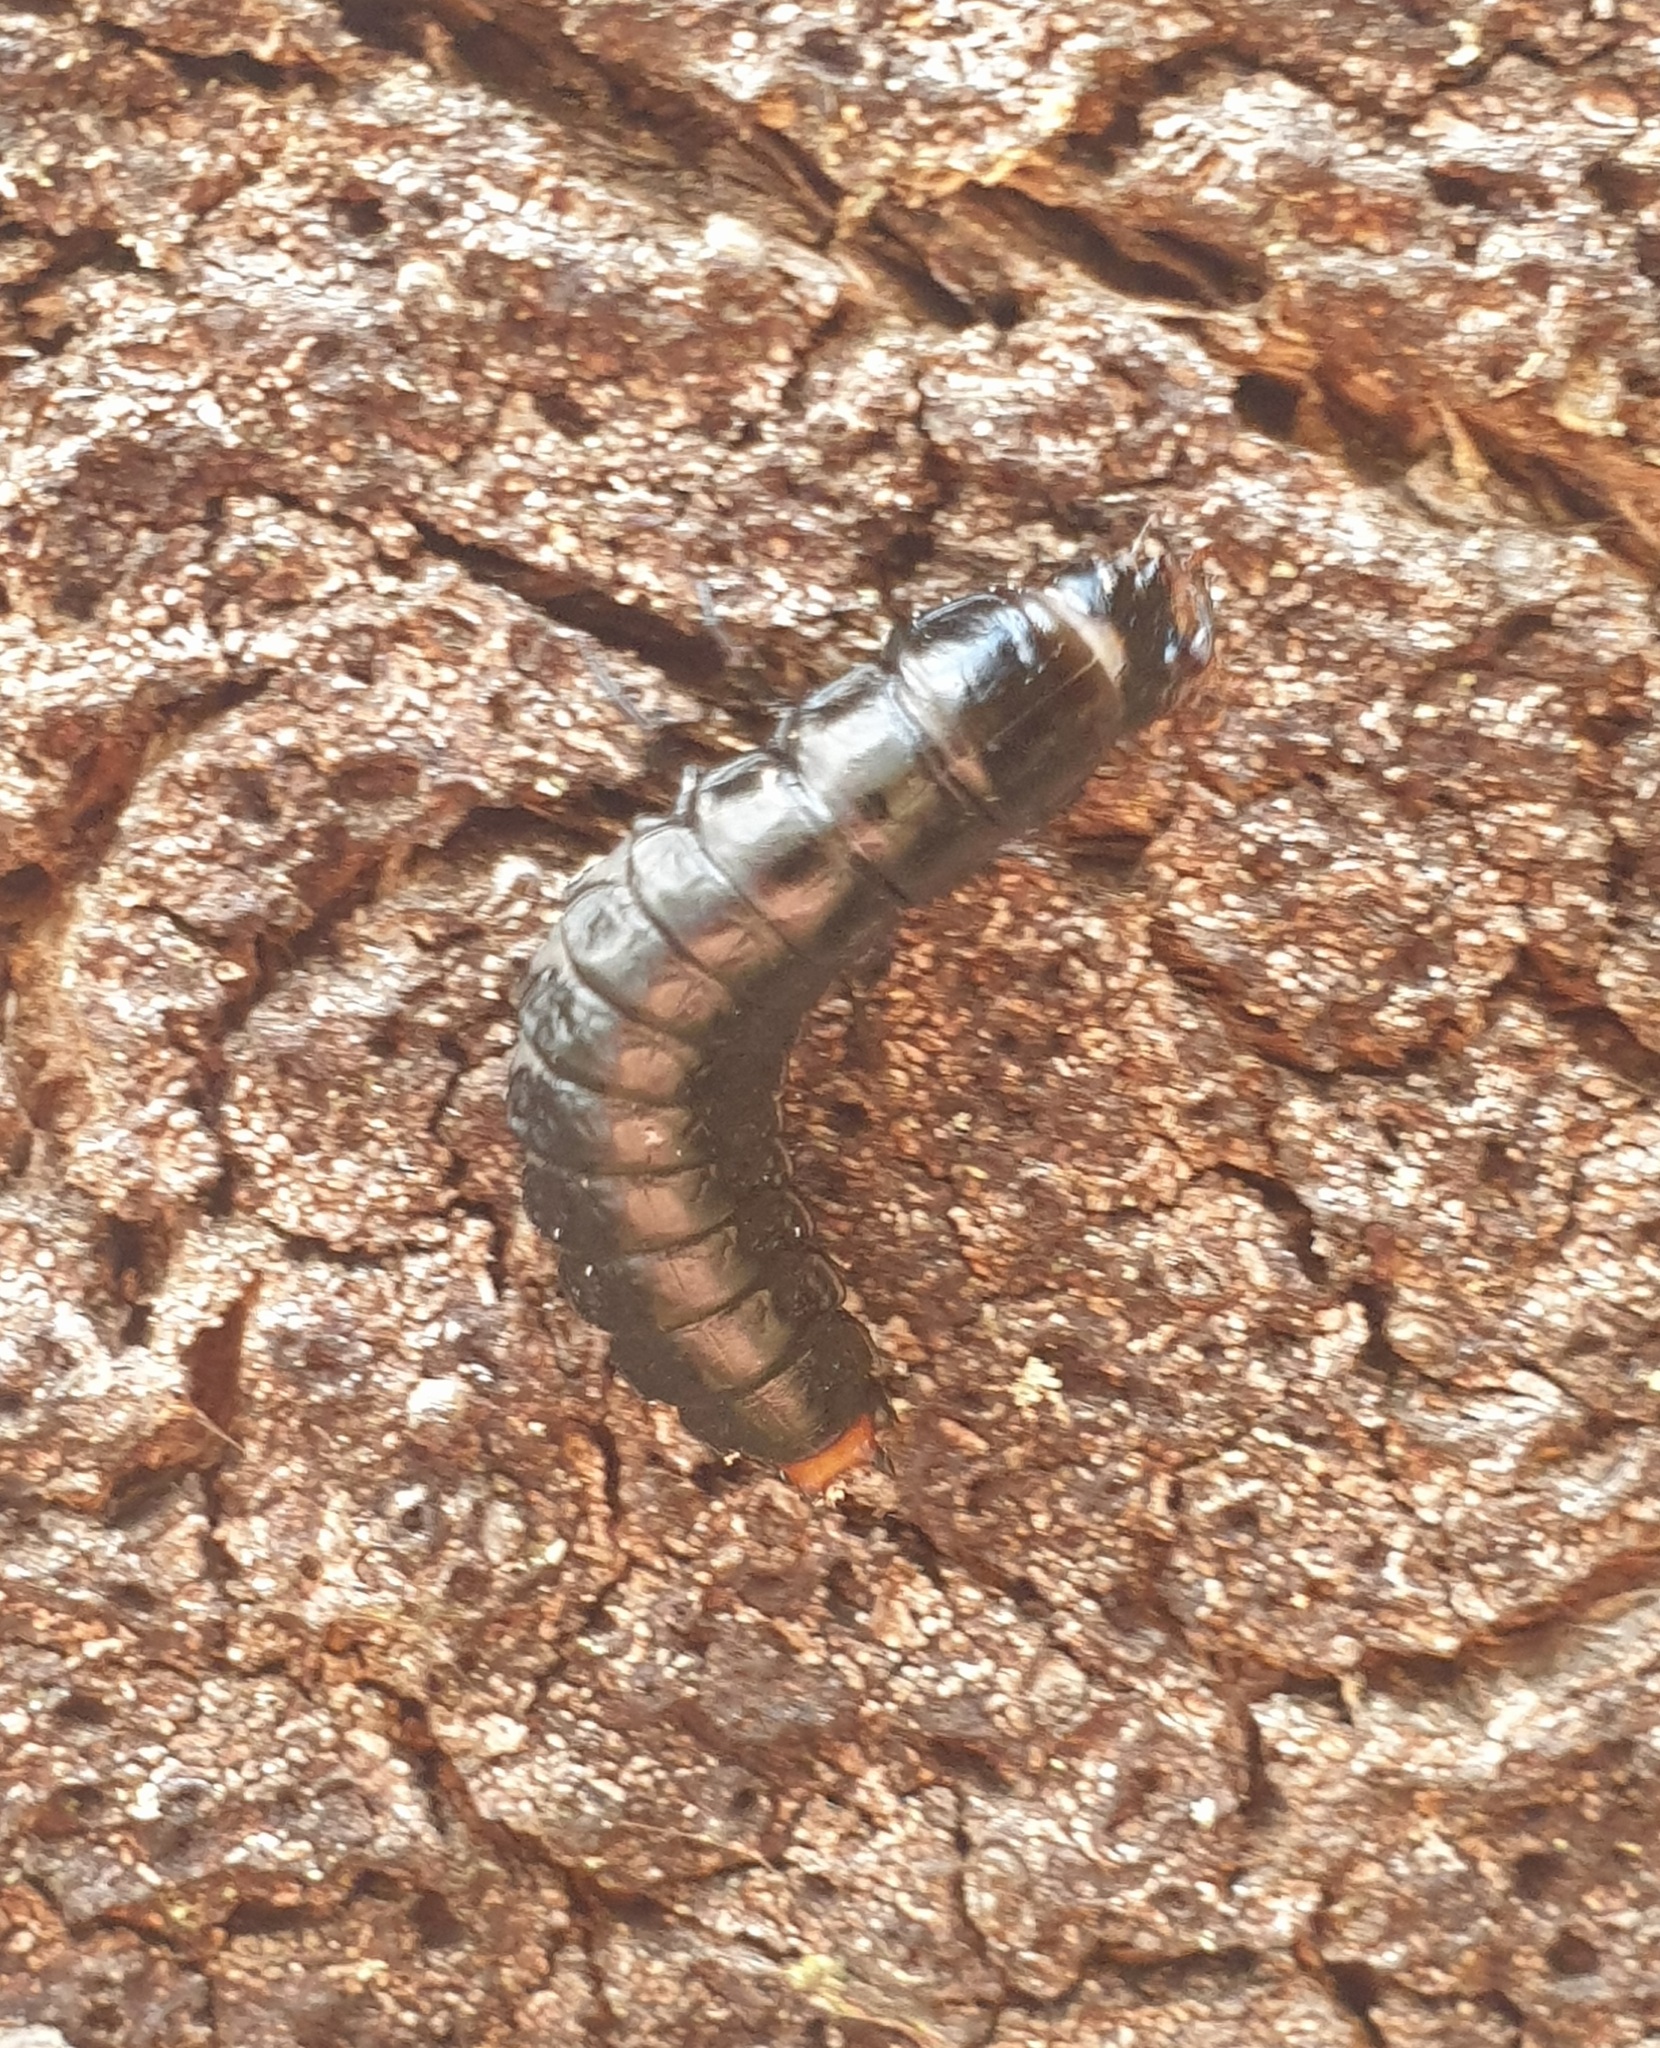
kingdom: Animalia
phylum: Arthropoda
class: Insecta
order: Coleoptera
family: Carabidae
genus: Calosoma
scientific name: Calosoma sycophanta
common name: Forest caterpillar hunter
